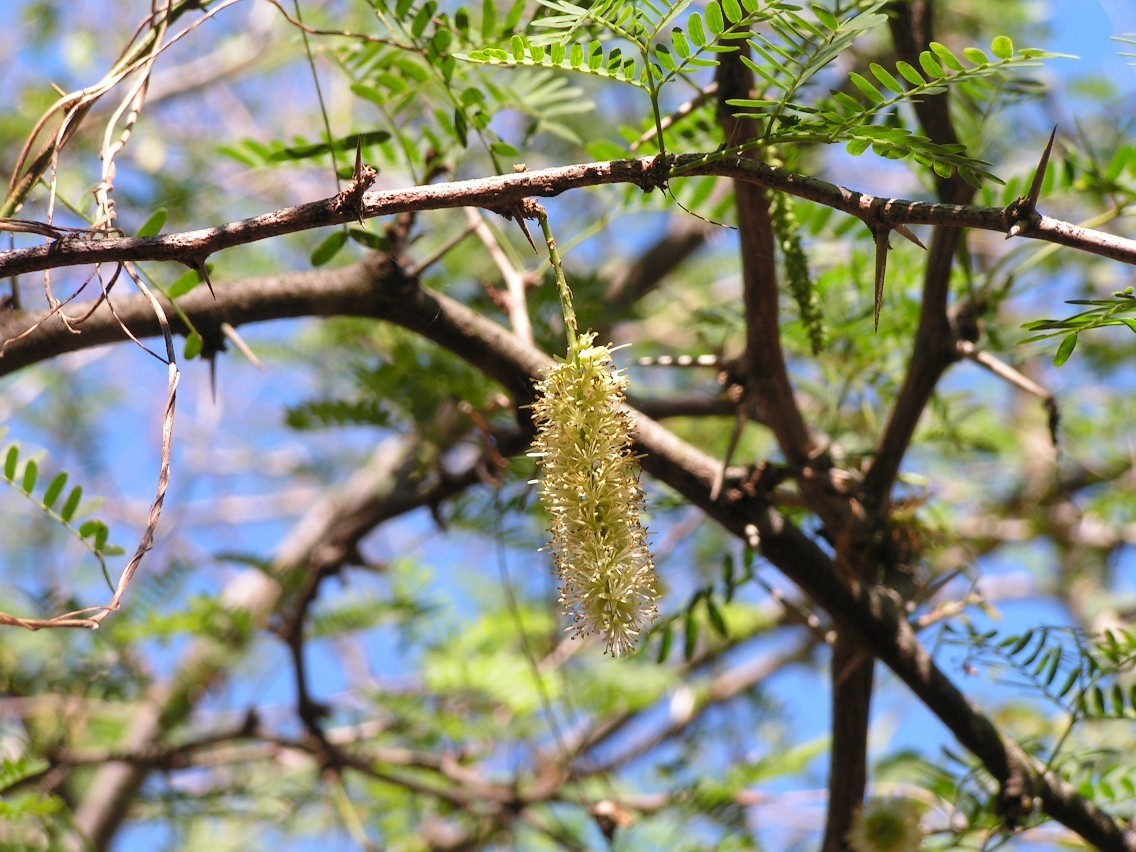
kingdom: Plantae
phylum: Tracheophyta
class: Magnoliopsida
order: Fabales
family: Fabaceae
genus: Prosopis
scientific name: Prosopis juliflora
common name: Mesquite
